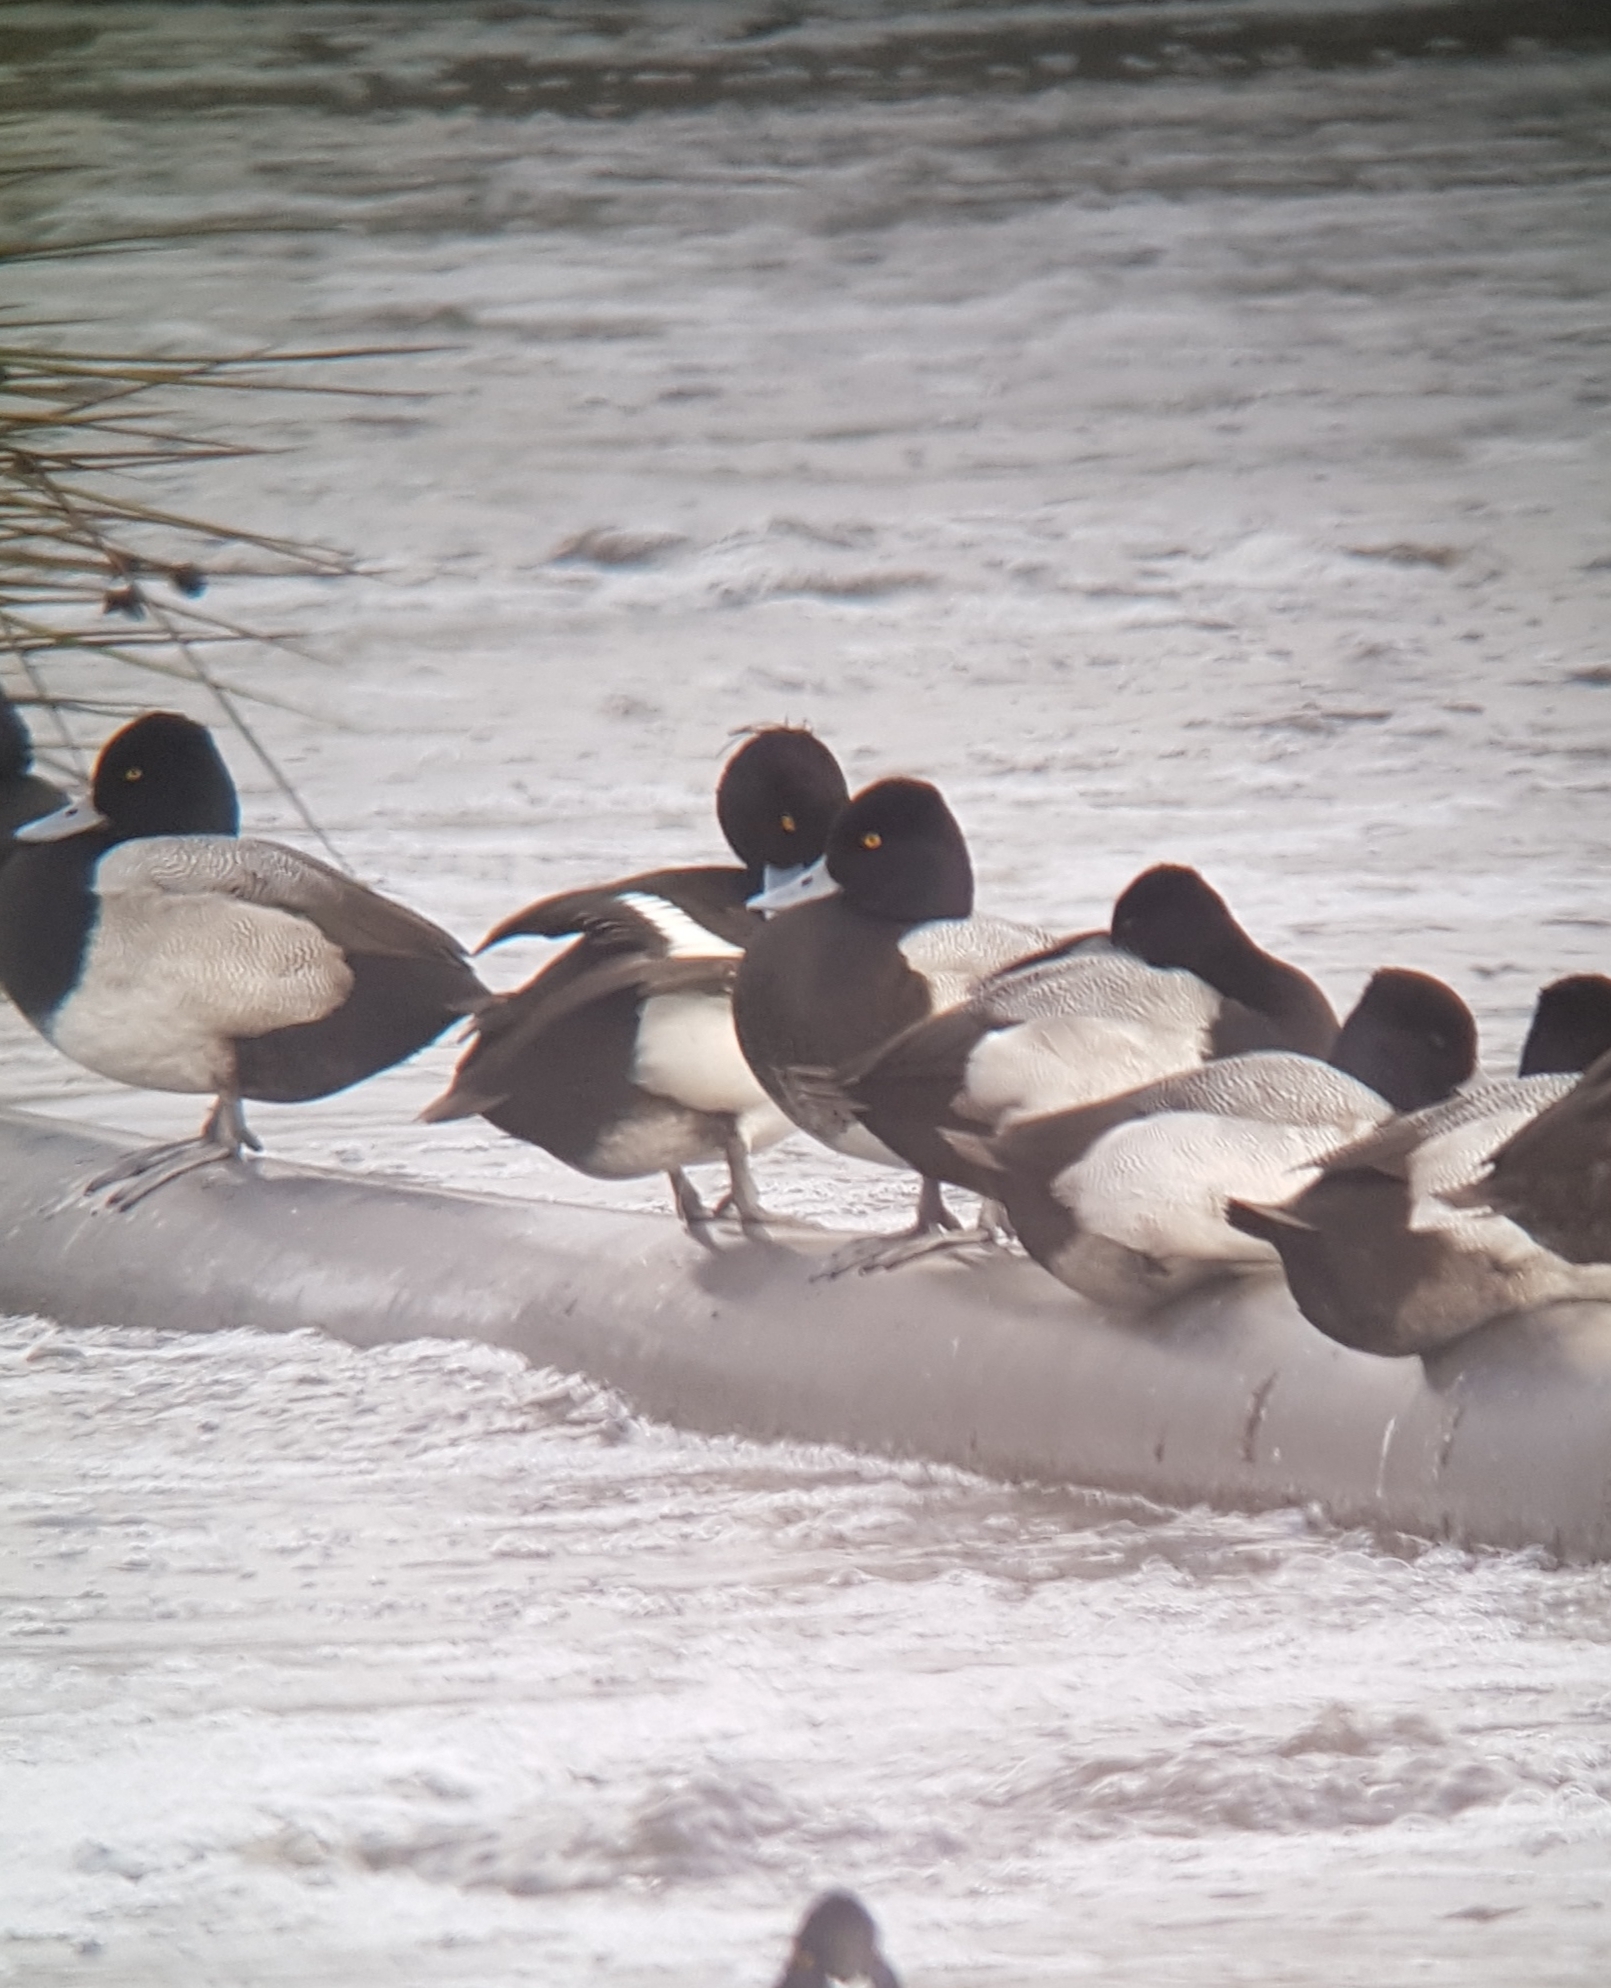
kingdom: Animalia
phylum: Chordata
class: Aves
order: Anseriformes
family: Anatidae
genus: Aythya
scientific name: Aythya fuligula
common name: Tufted duck
